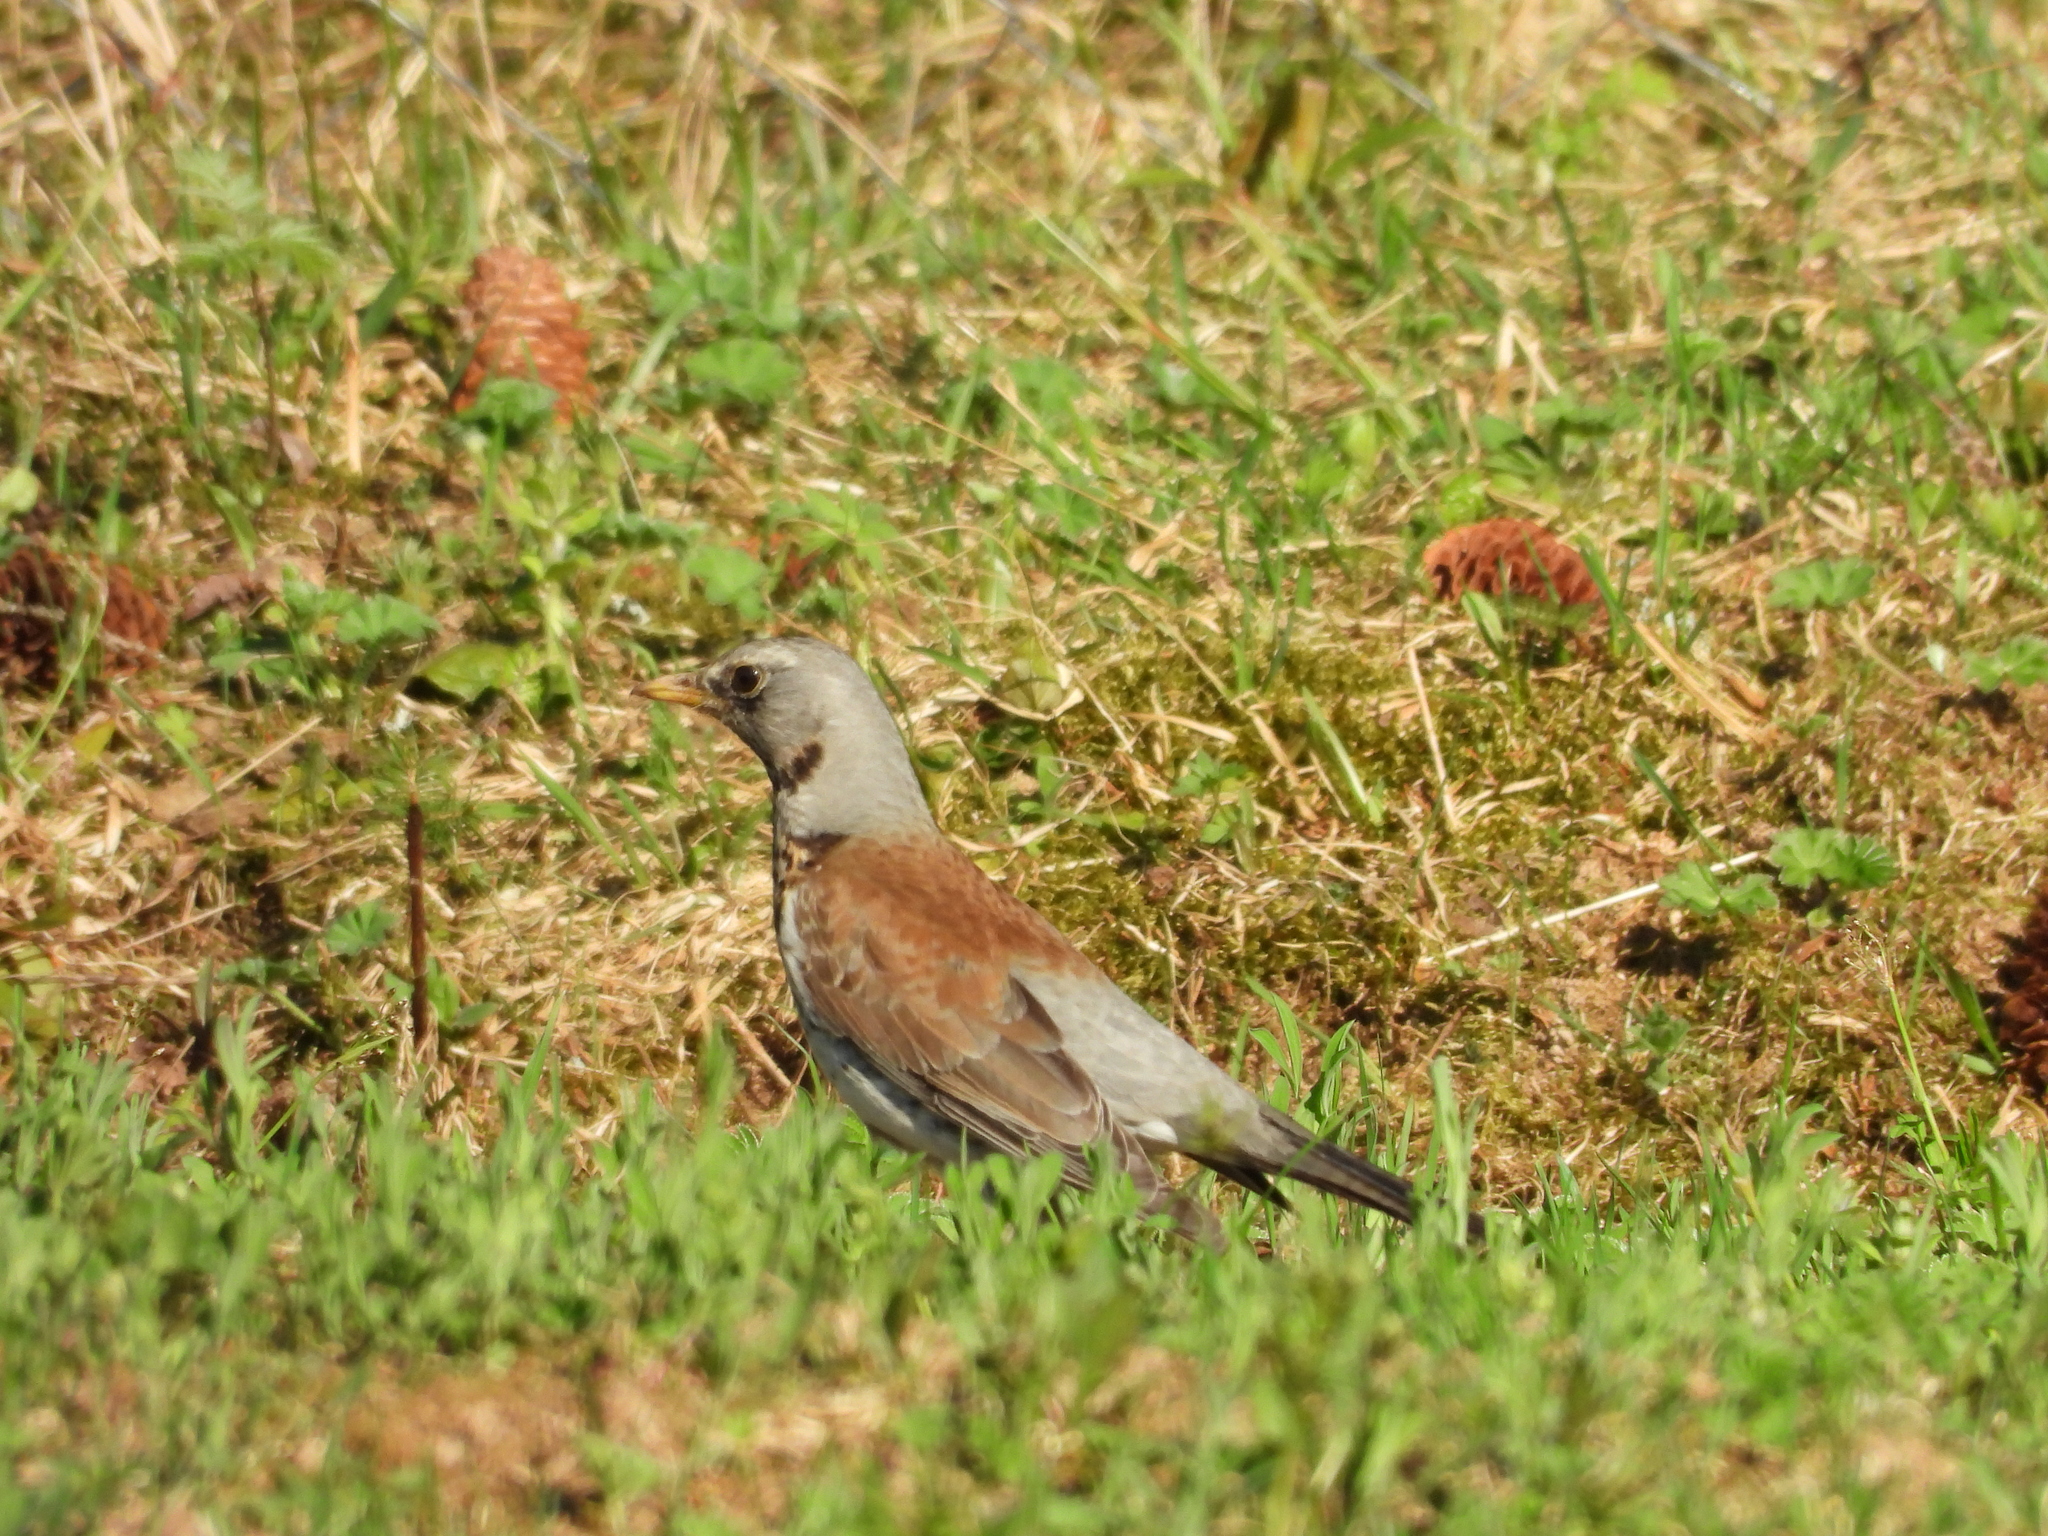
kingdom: Animalia
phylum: Chordata
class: Aves
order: Passeriformes
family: Turdidae
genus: Turdus
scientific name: Turdus pilaris
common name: Fieldfare
